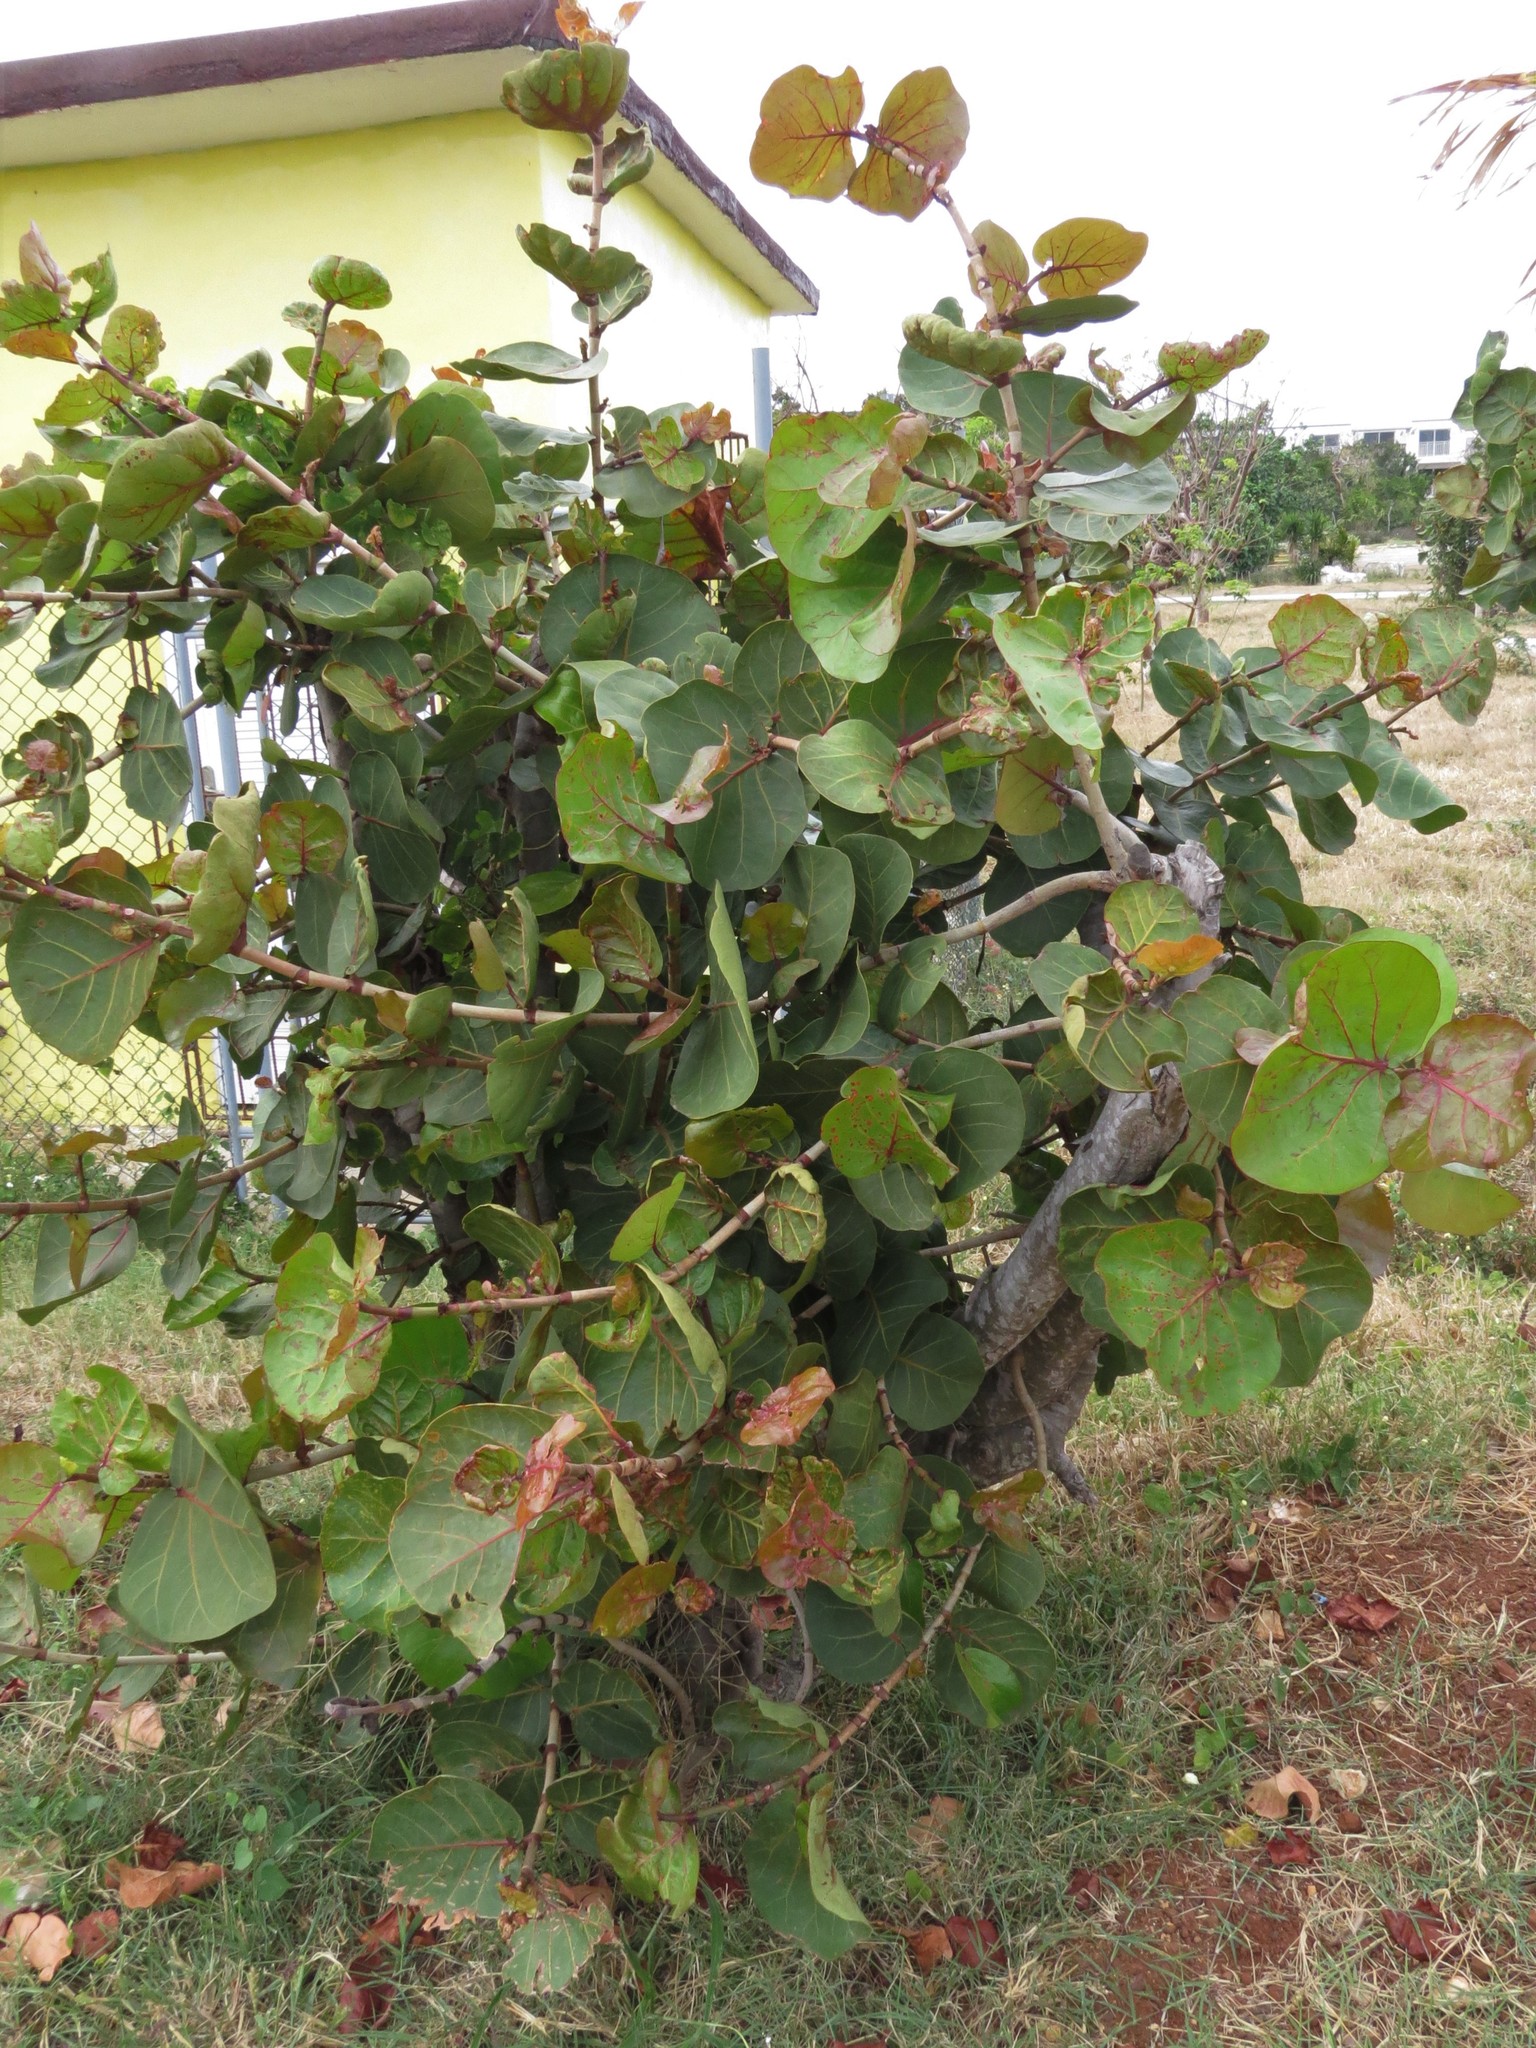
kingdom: Plantae
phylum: Tracheophyta
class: Magnoliopsida
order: Caryophyllales
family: Polygonaceae
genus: Coccoloba
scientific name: Coccoloba uvifera
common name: Seagrape
